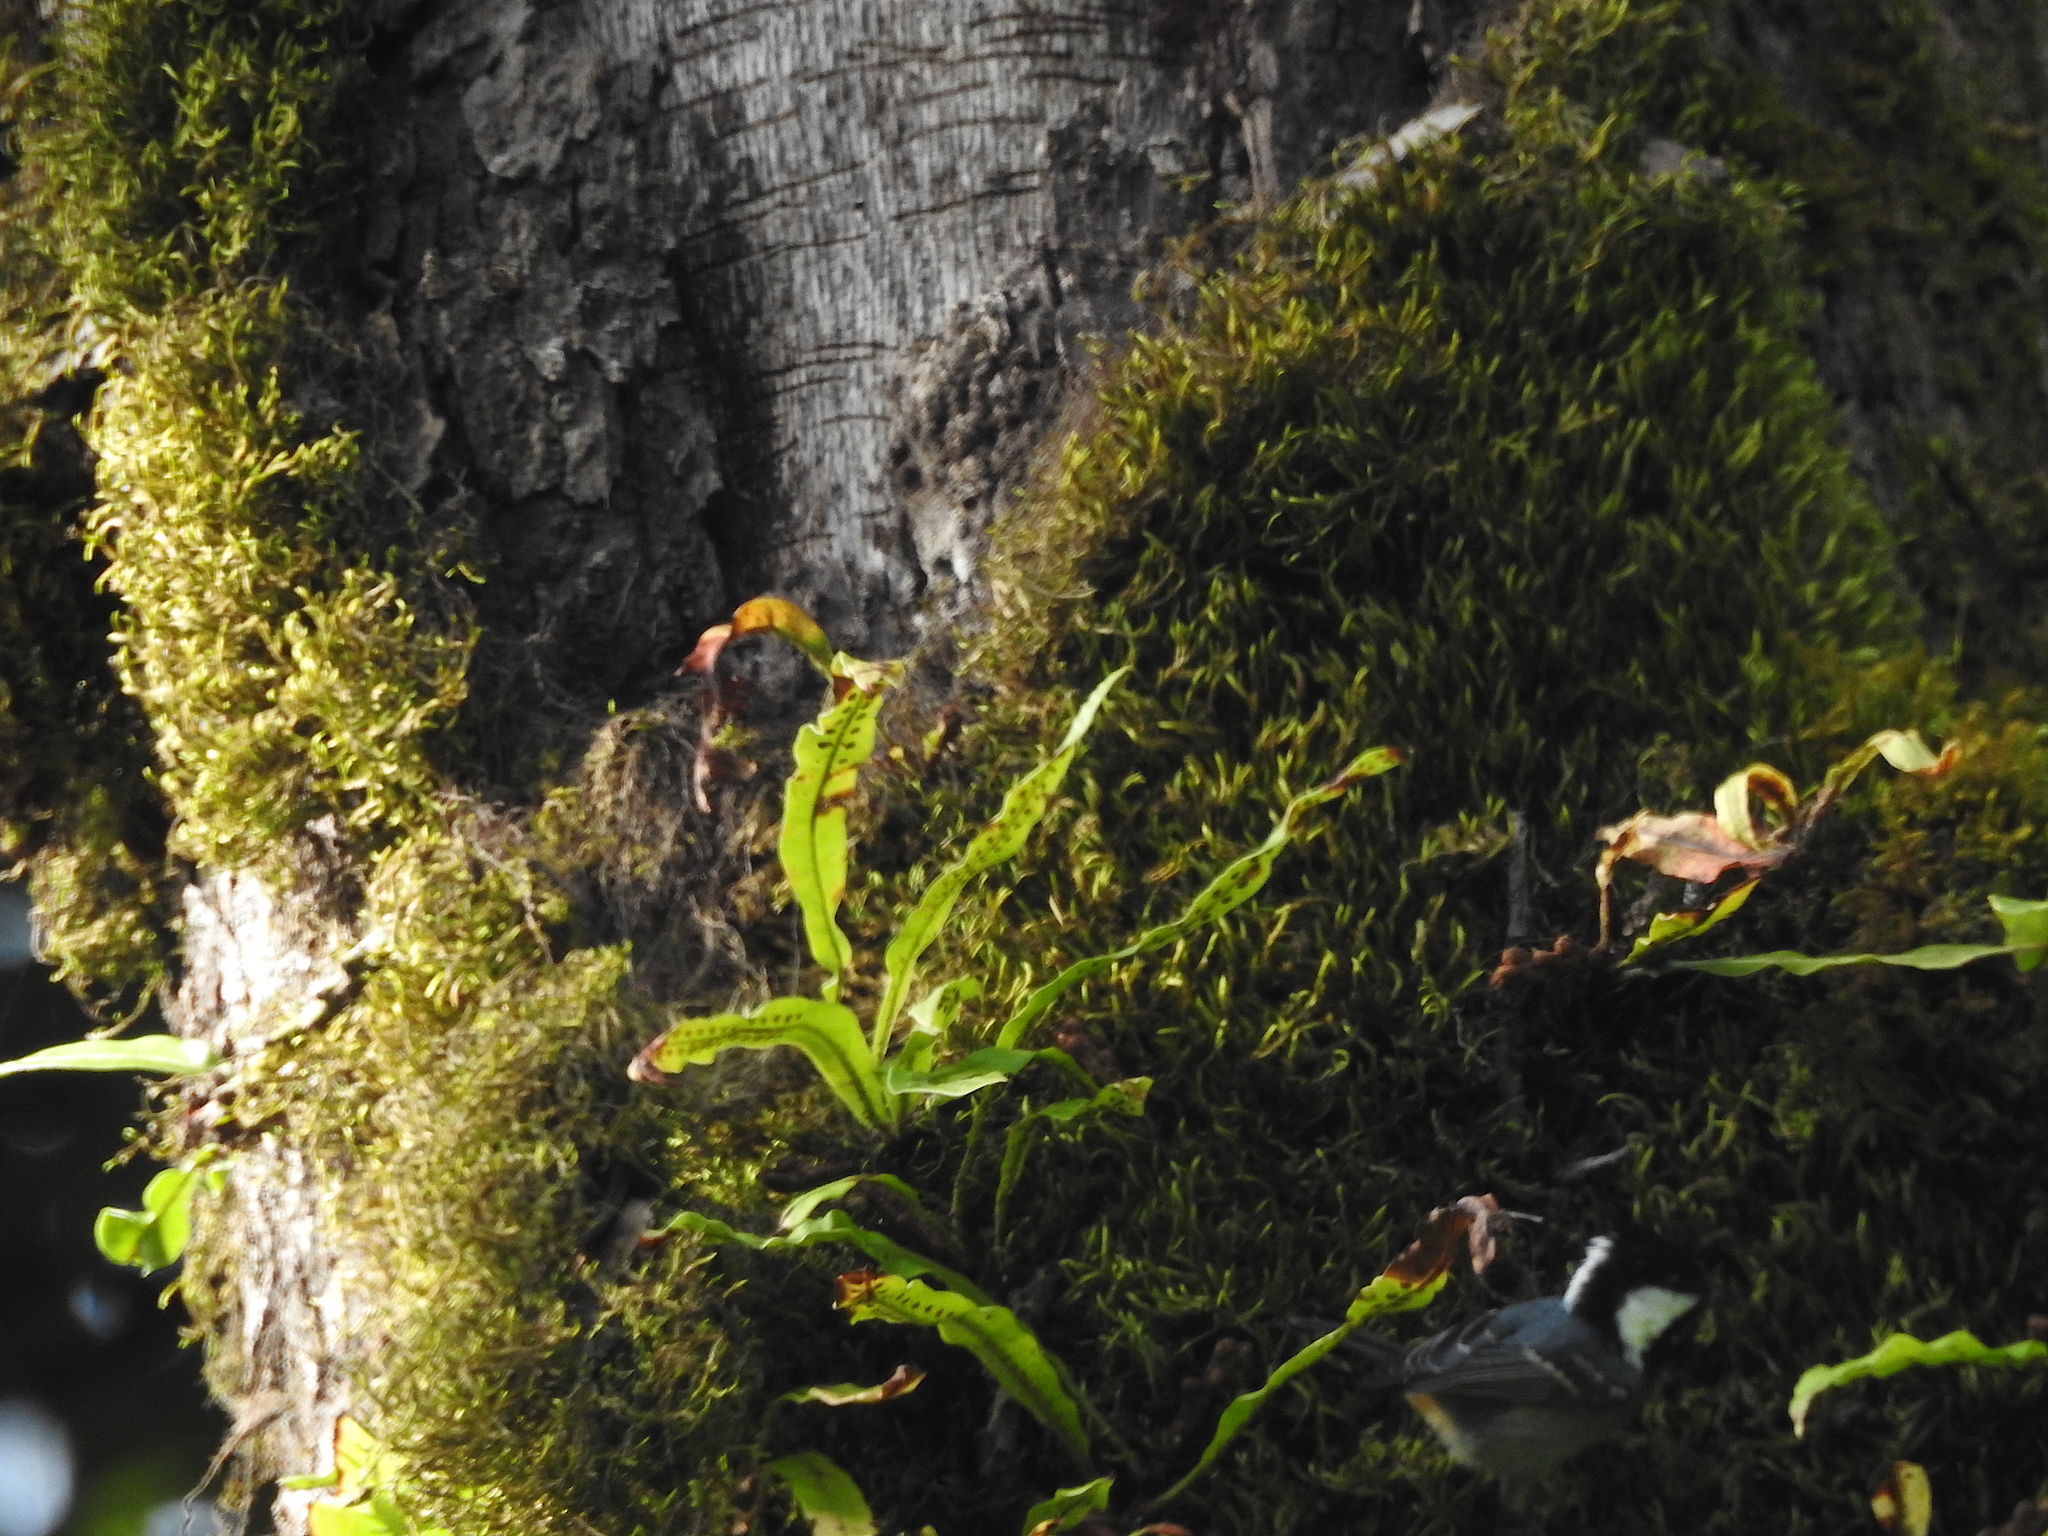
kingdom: Animalia
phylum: Chordata
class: Aves
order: Passeriformes
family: Paridae
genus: Periparus
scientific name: Periparus ater
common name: Coal tit
